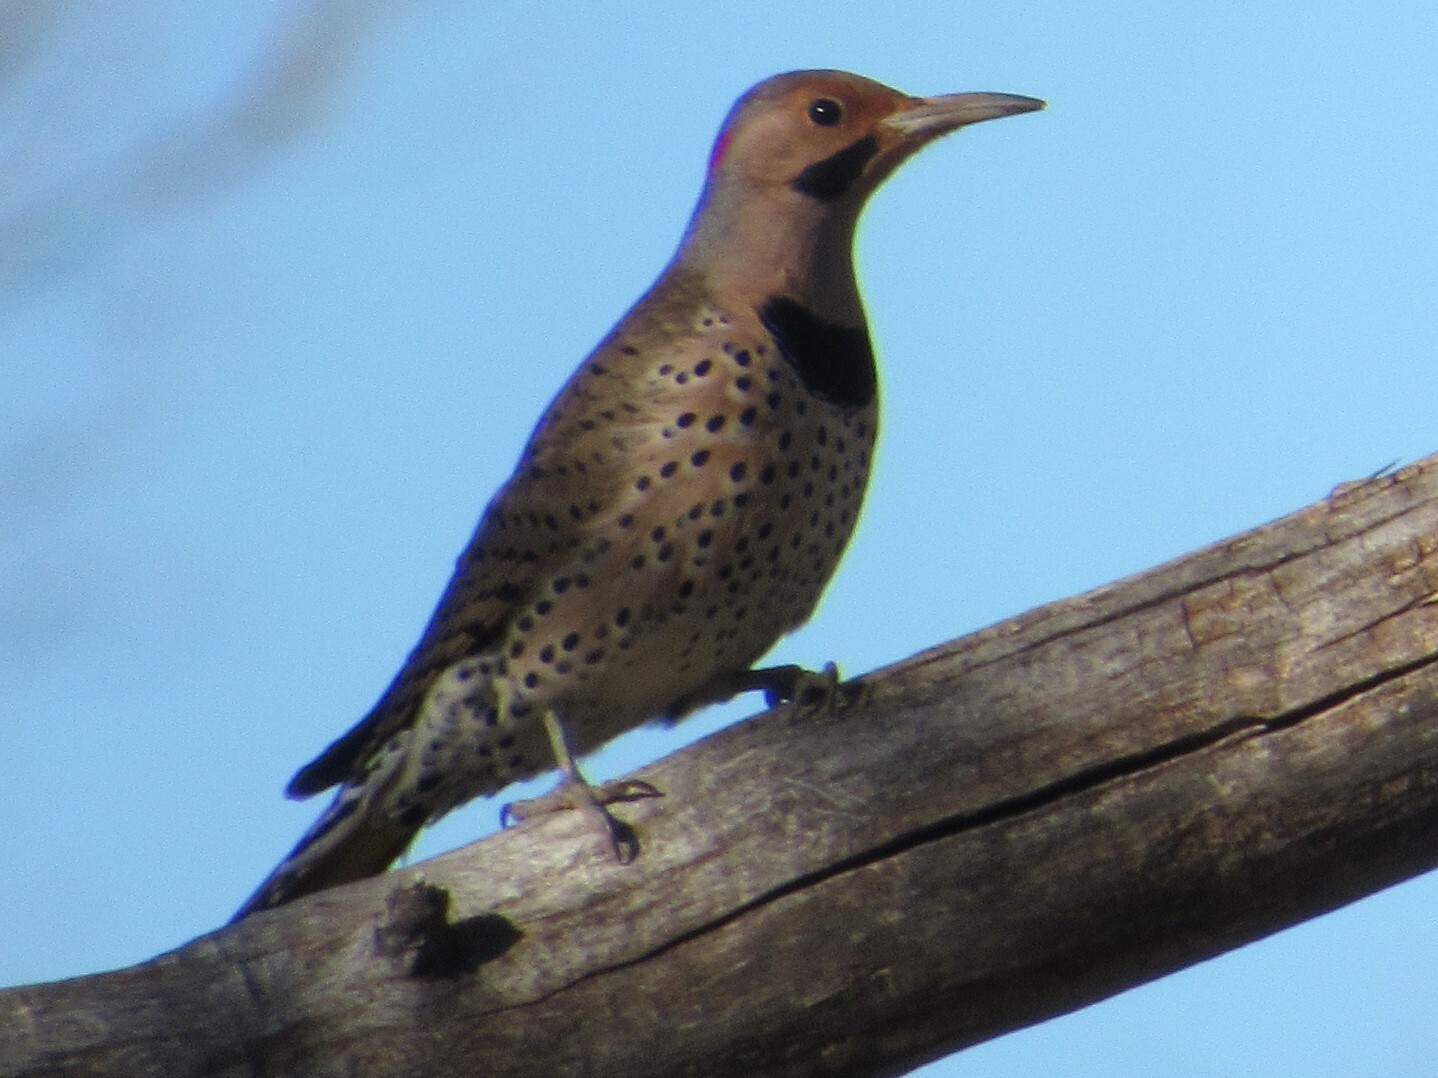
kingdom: Animalia
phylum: Chordata
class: Aves
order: Piciformes
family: Picidae
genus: Colaptes
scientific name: Colaptes auratus
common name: Northern flicker
